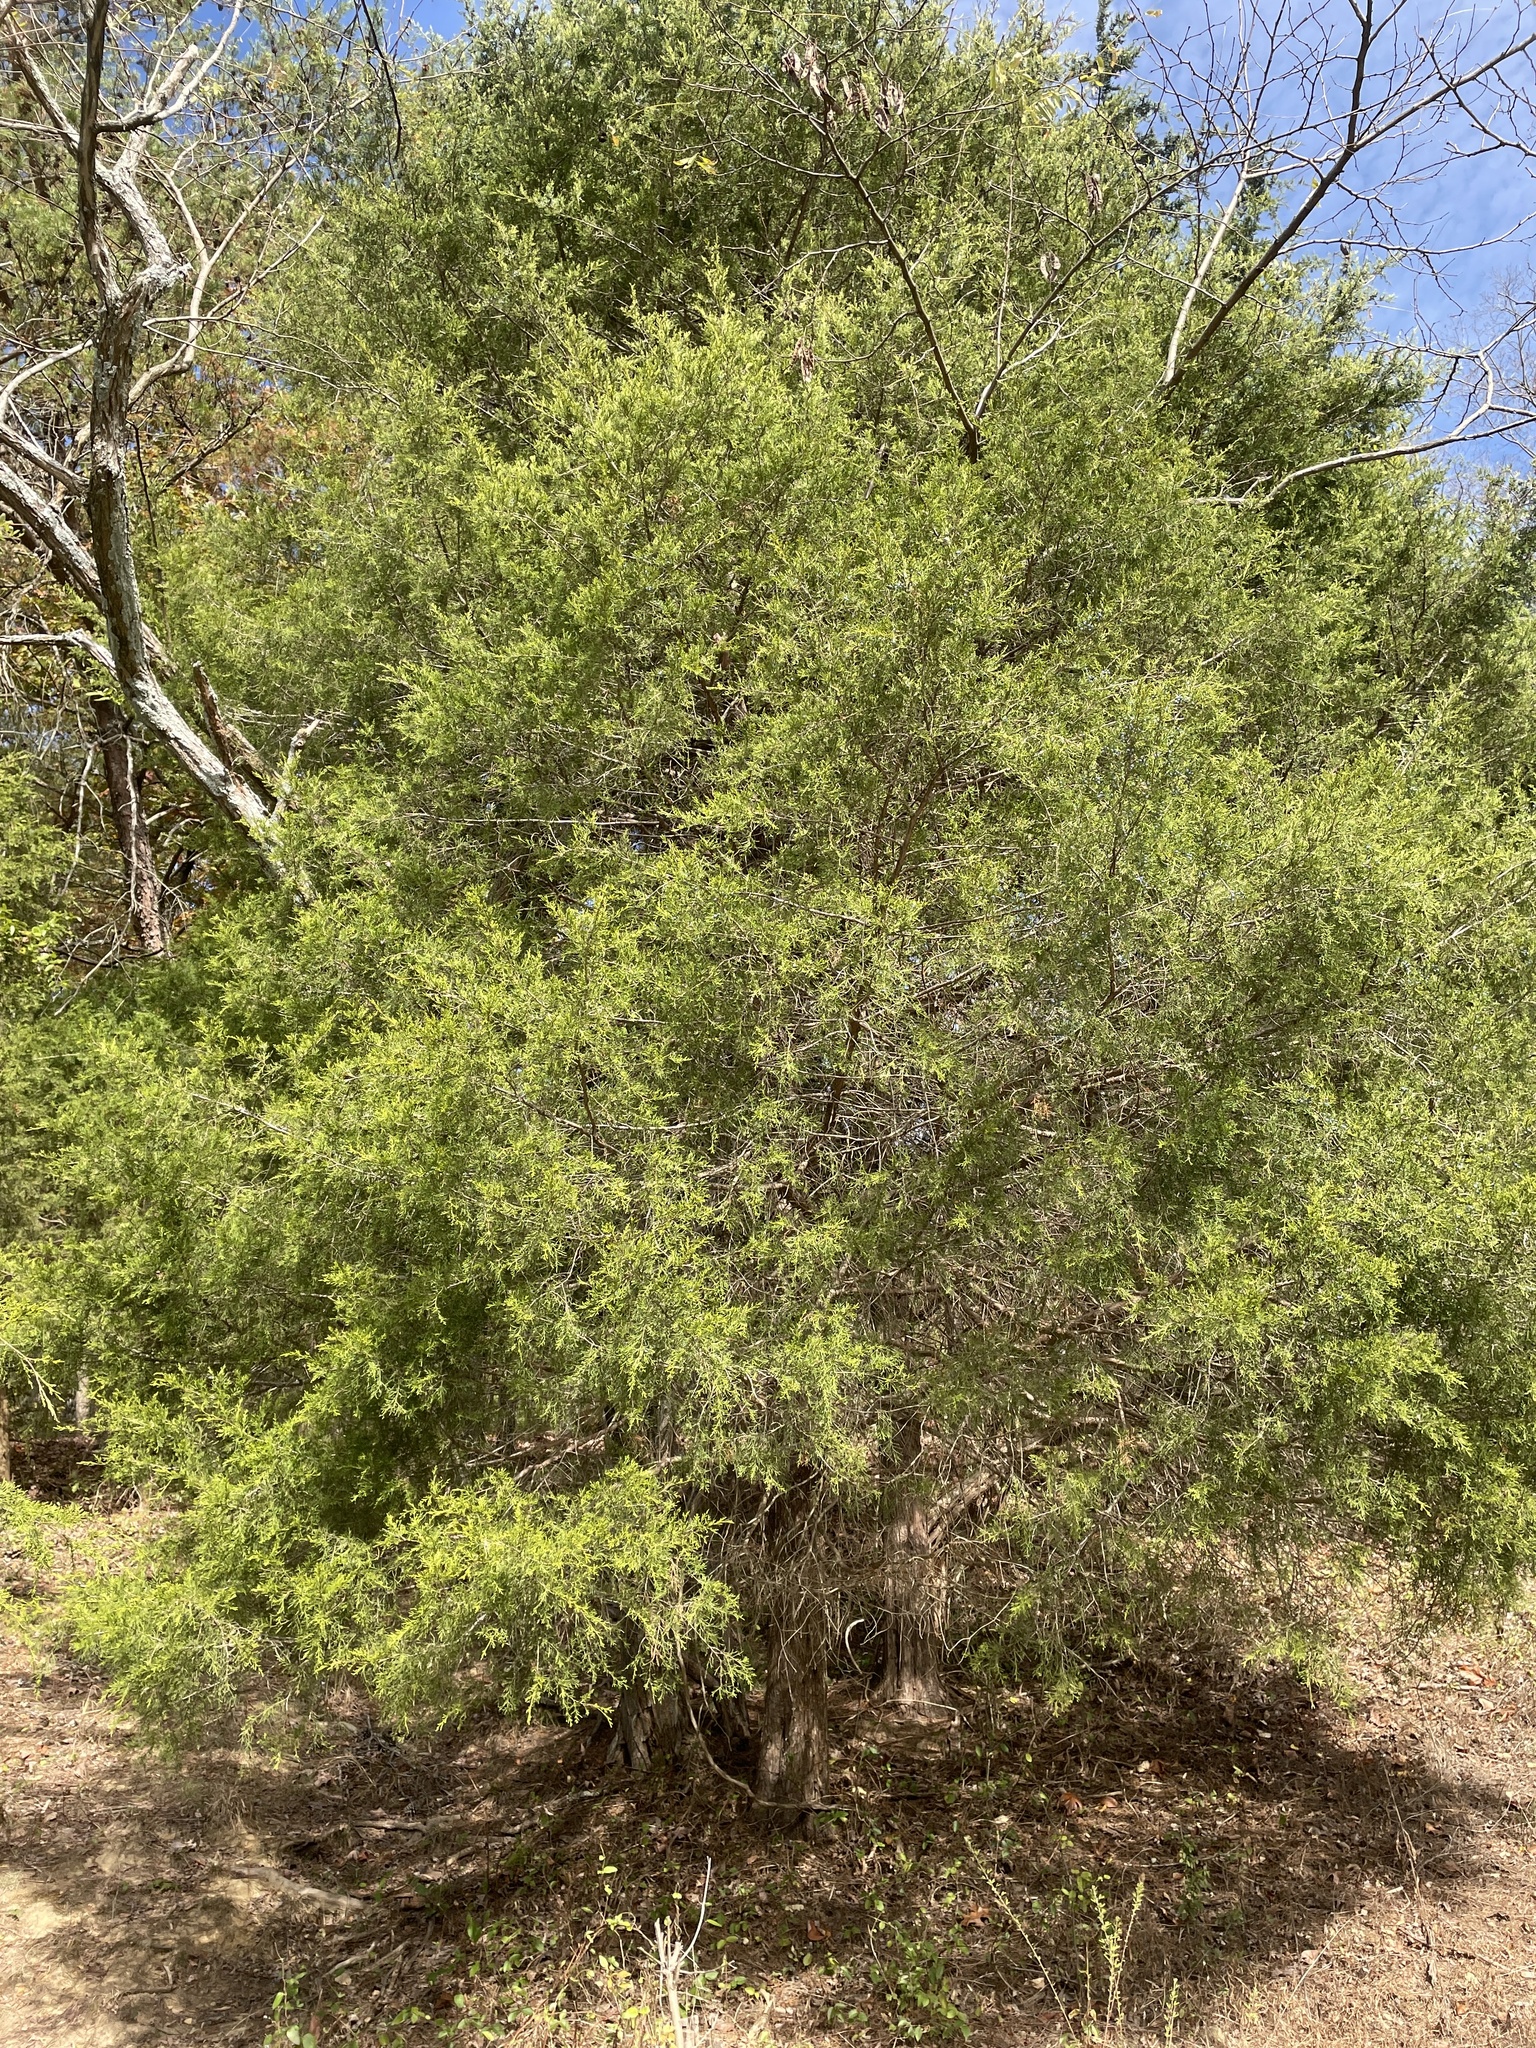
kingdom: Plantae
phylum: Tracheophyta
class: Pinopsida
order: Pinales
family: Cupressaceae
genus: Juniperus
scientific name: Juniperus virginiana
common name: Red juniper
